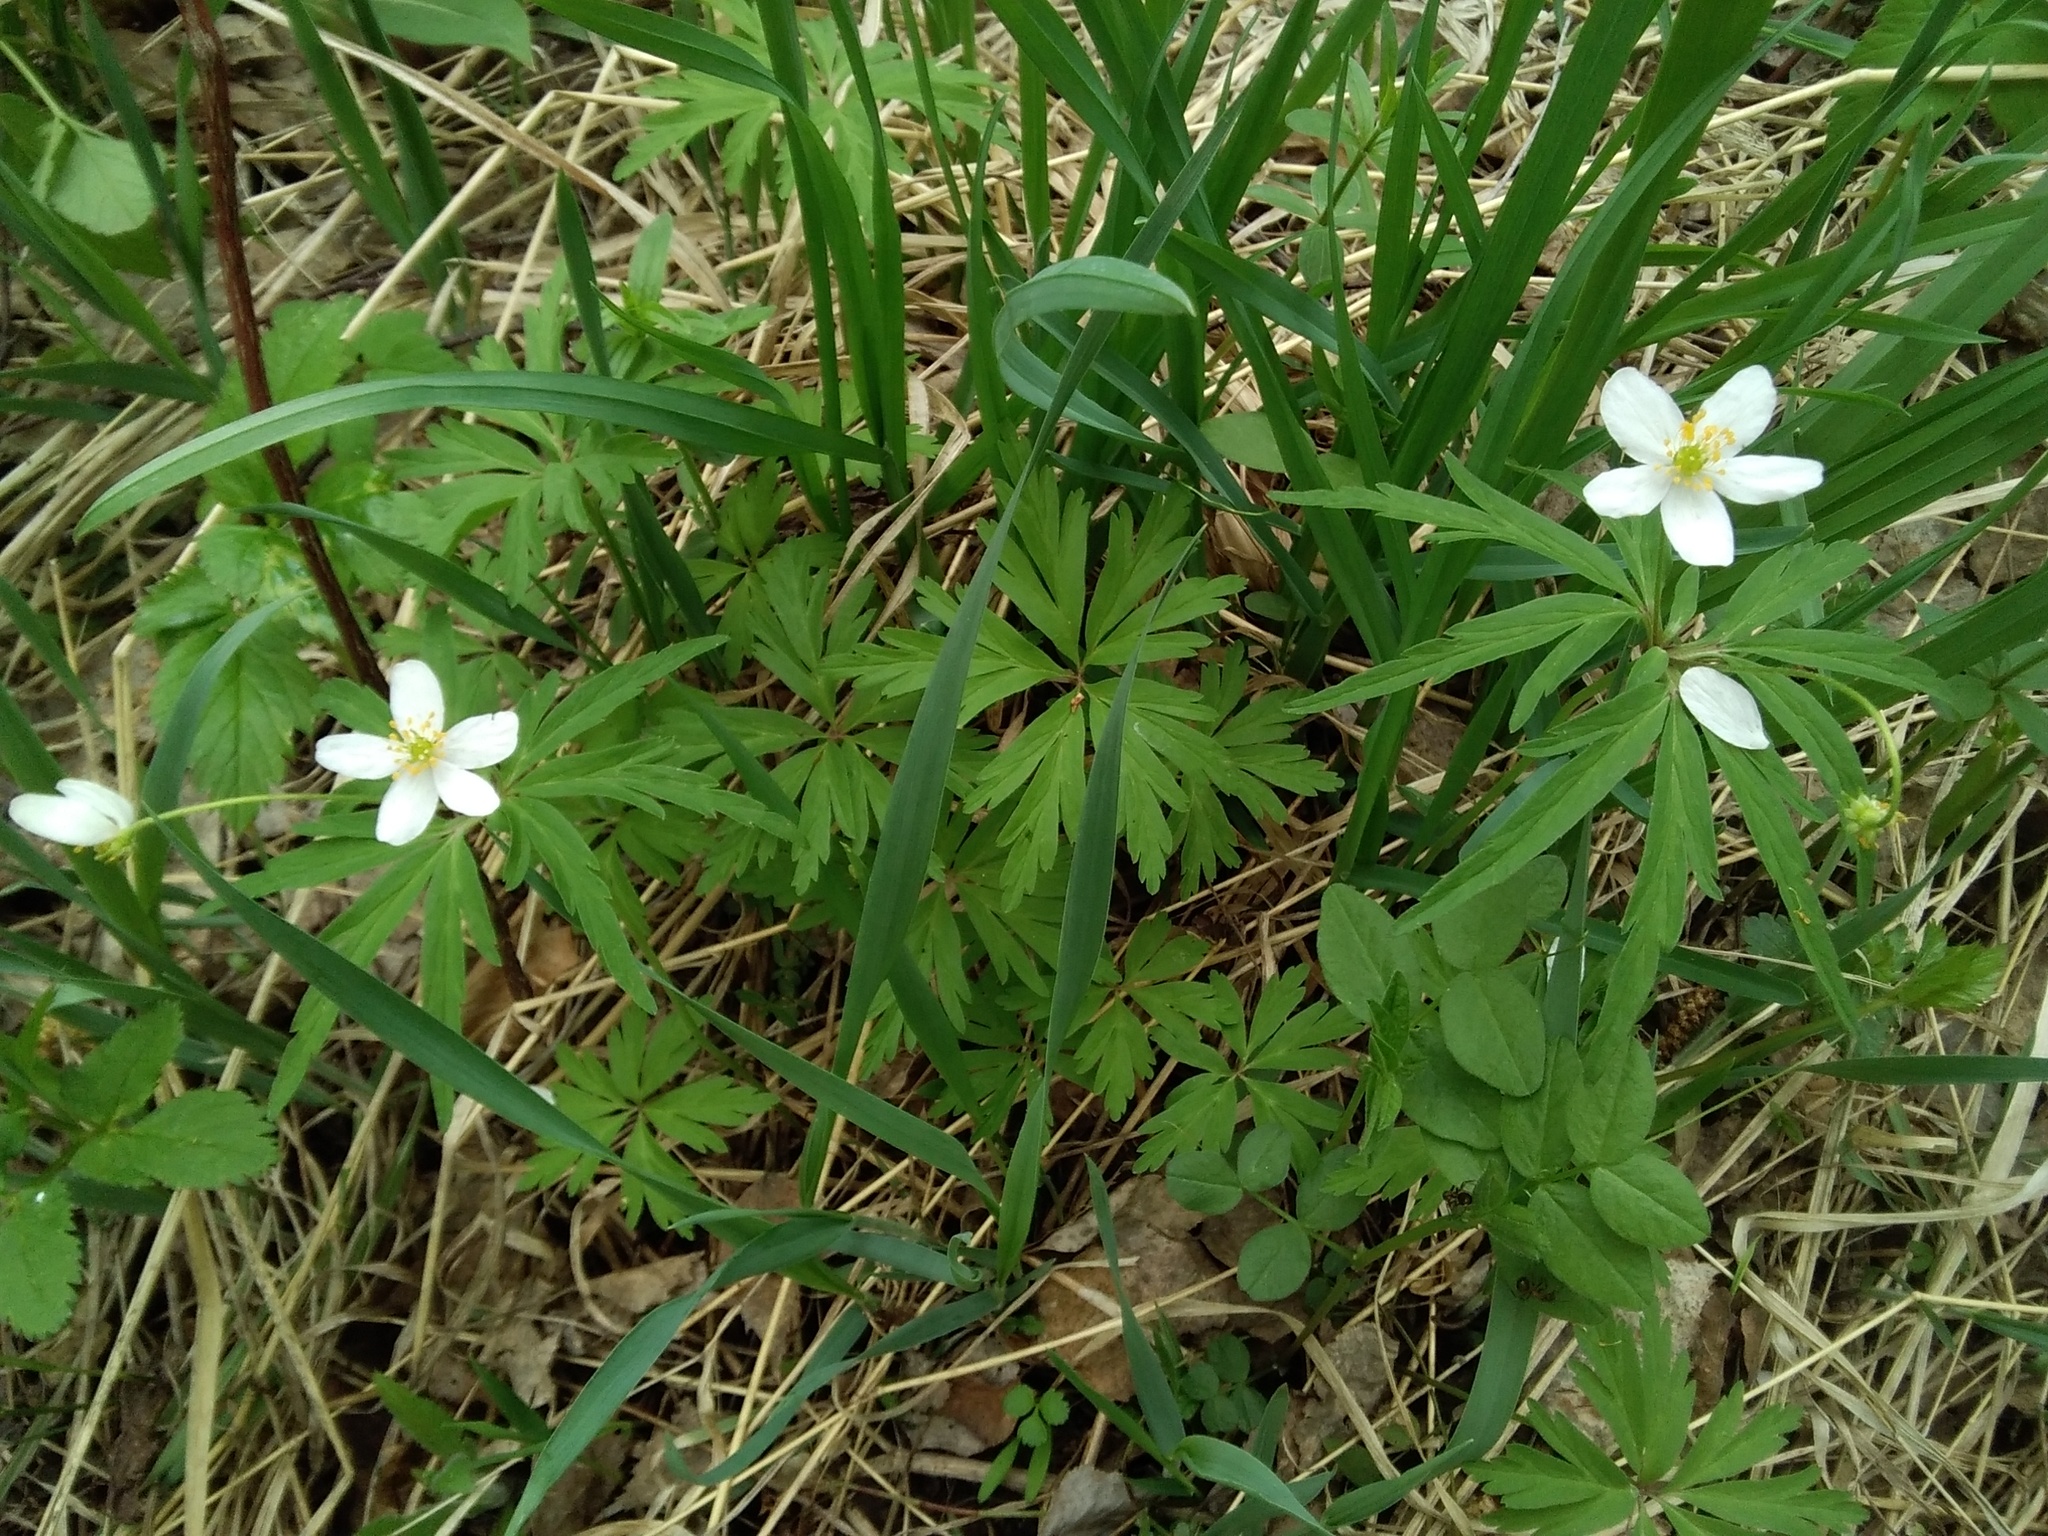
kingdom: Plantae
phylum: Tracheophyta
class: Magnoliopsida
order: Ranunculales
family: Ranunculaceae
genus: Anemone
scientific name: Anemone caerulea
